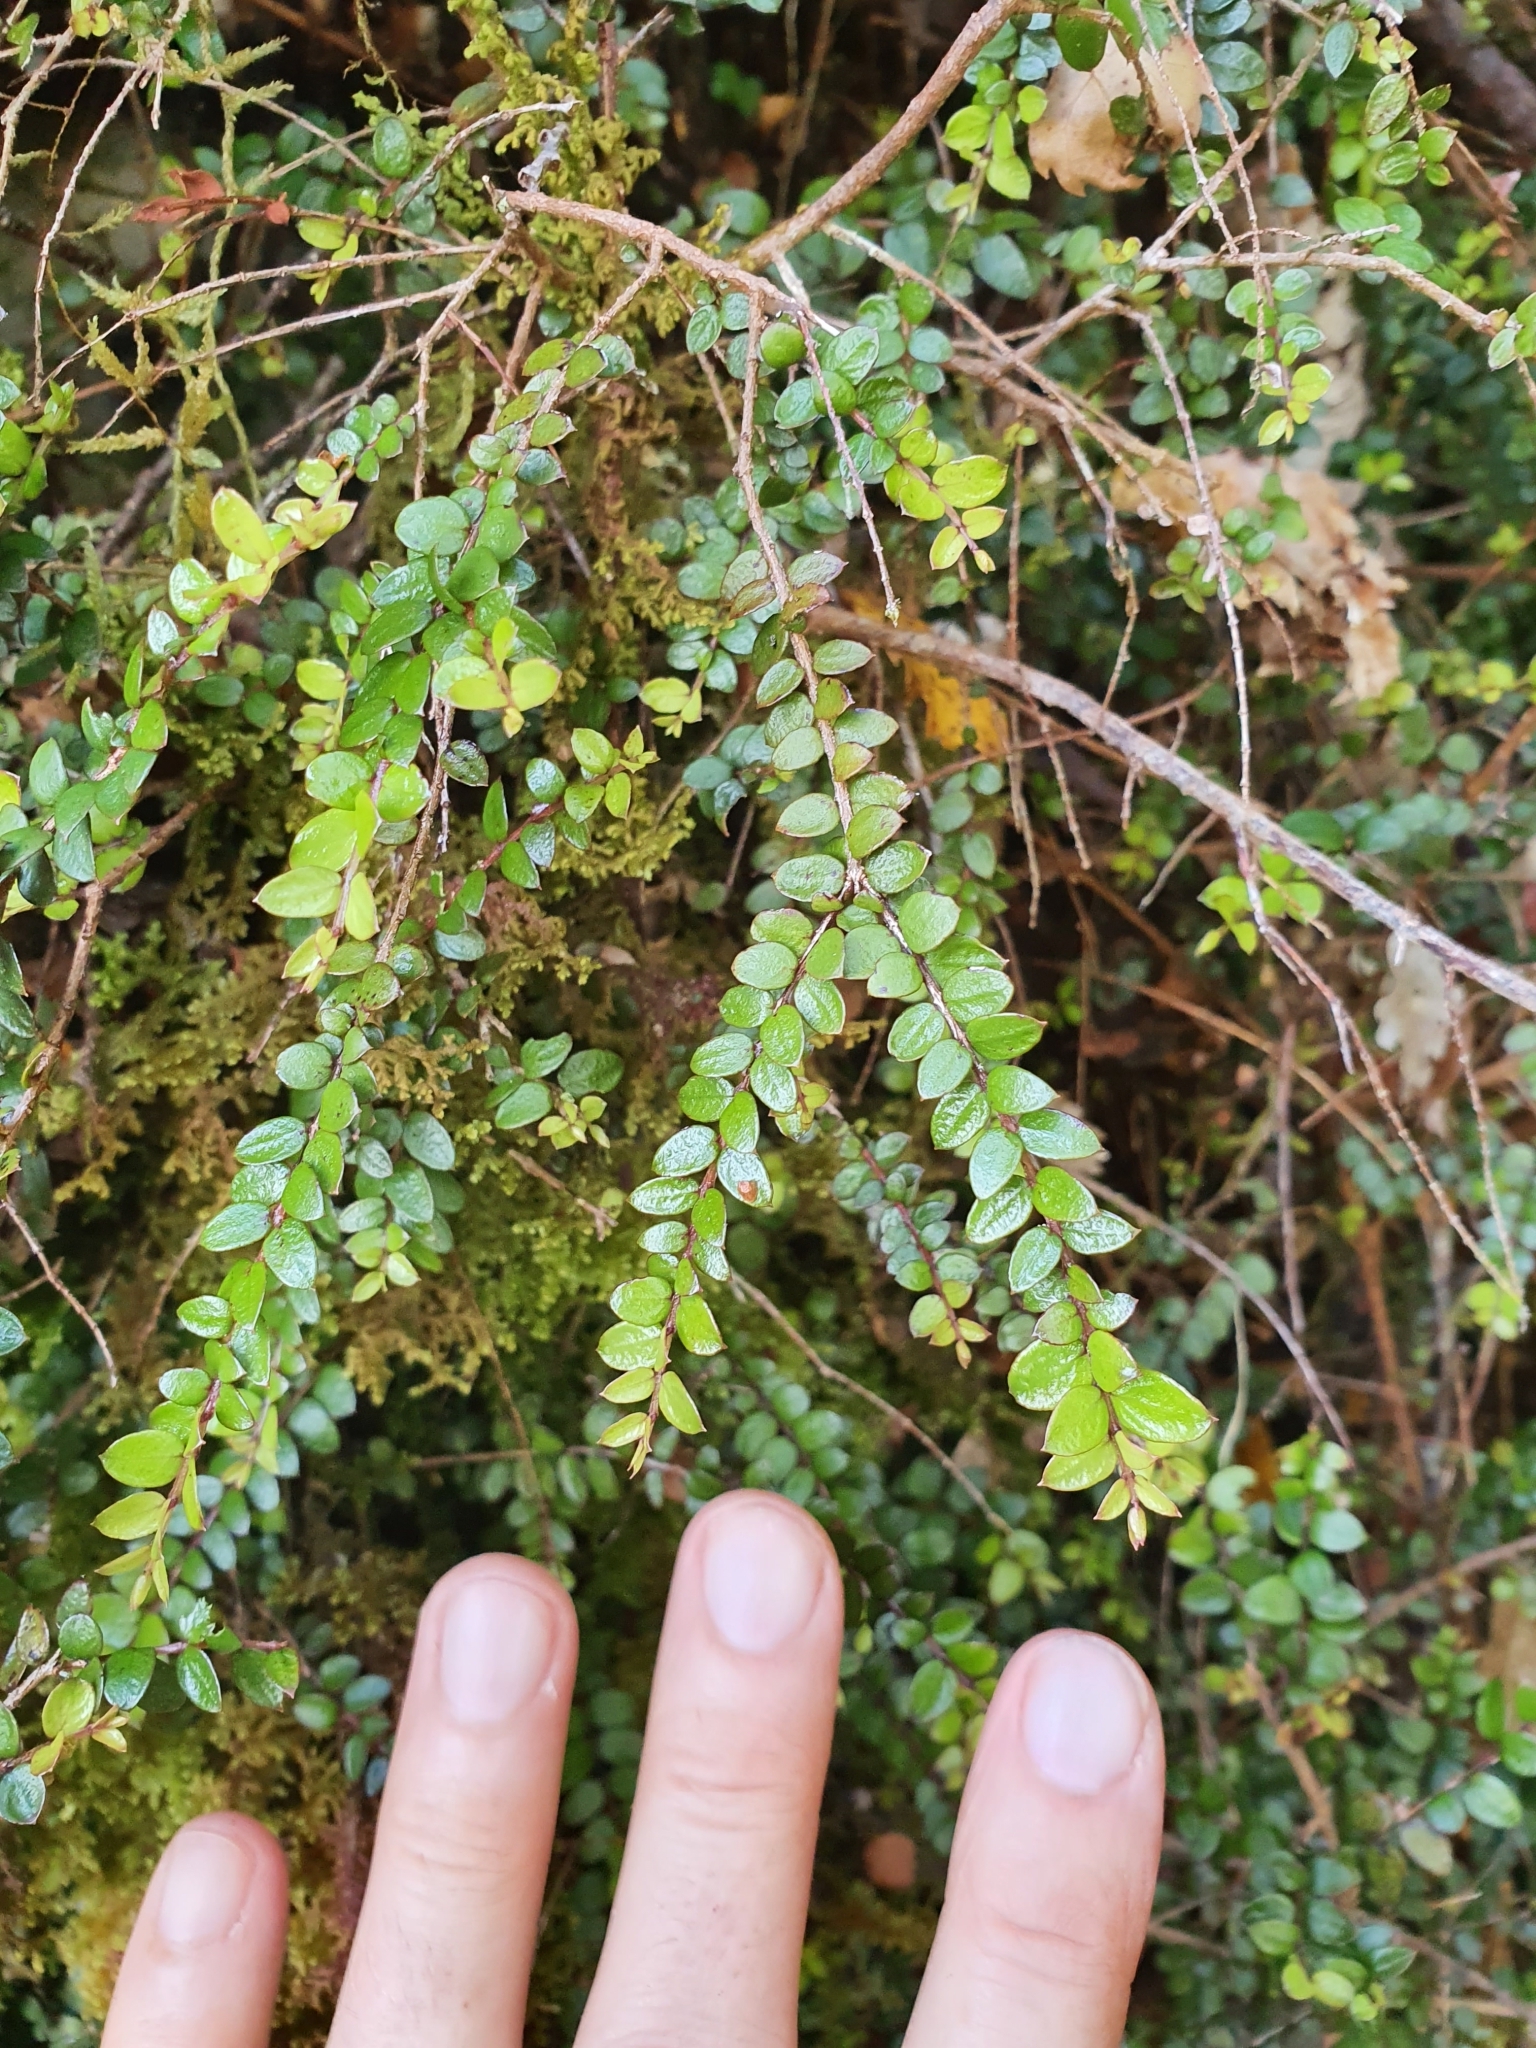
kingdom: Plantae
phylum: Tracheophyta
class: Magnoliopsida
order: Myrtales
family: Myrtaceae
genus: Metrosideros
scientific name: Metrosideros diffusa
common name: Small ratavine
